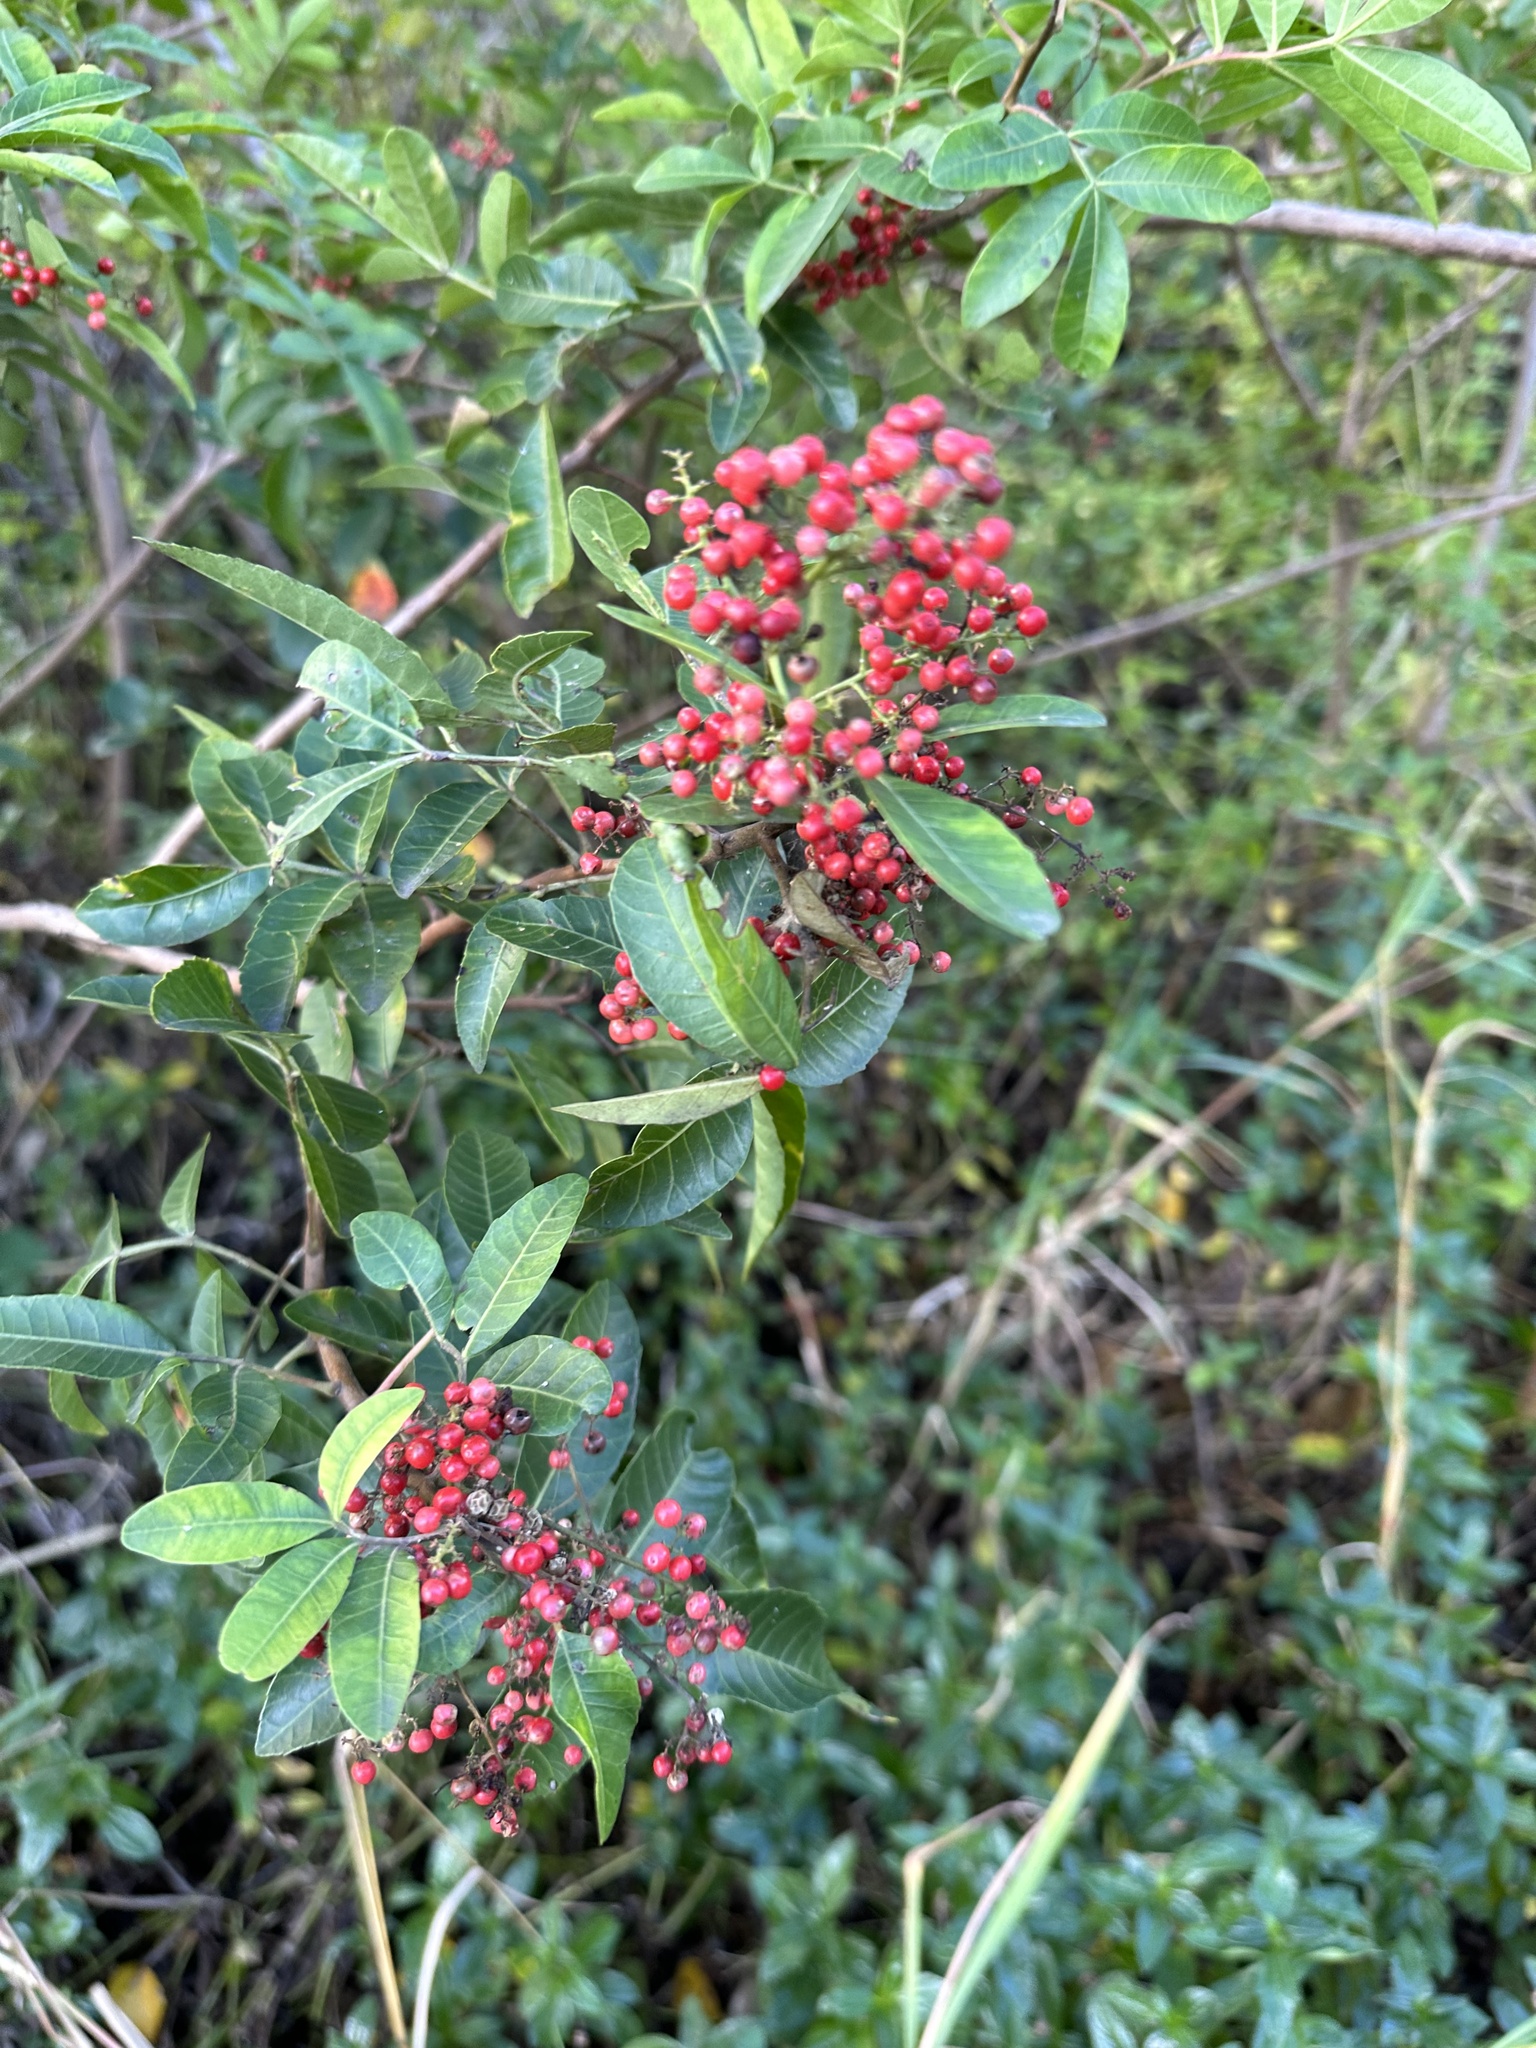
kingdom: Plantae
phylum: Tracheophyta
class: Magnoliopsida
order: Sapindales
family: Anacardiaceae
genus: Schinus
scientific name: Schinus terebinthifolia
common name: Brazilian peppertree
